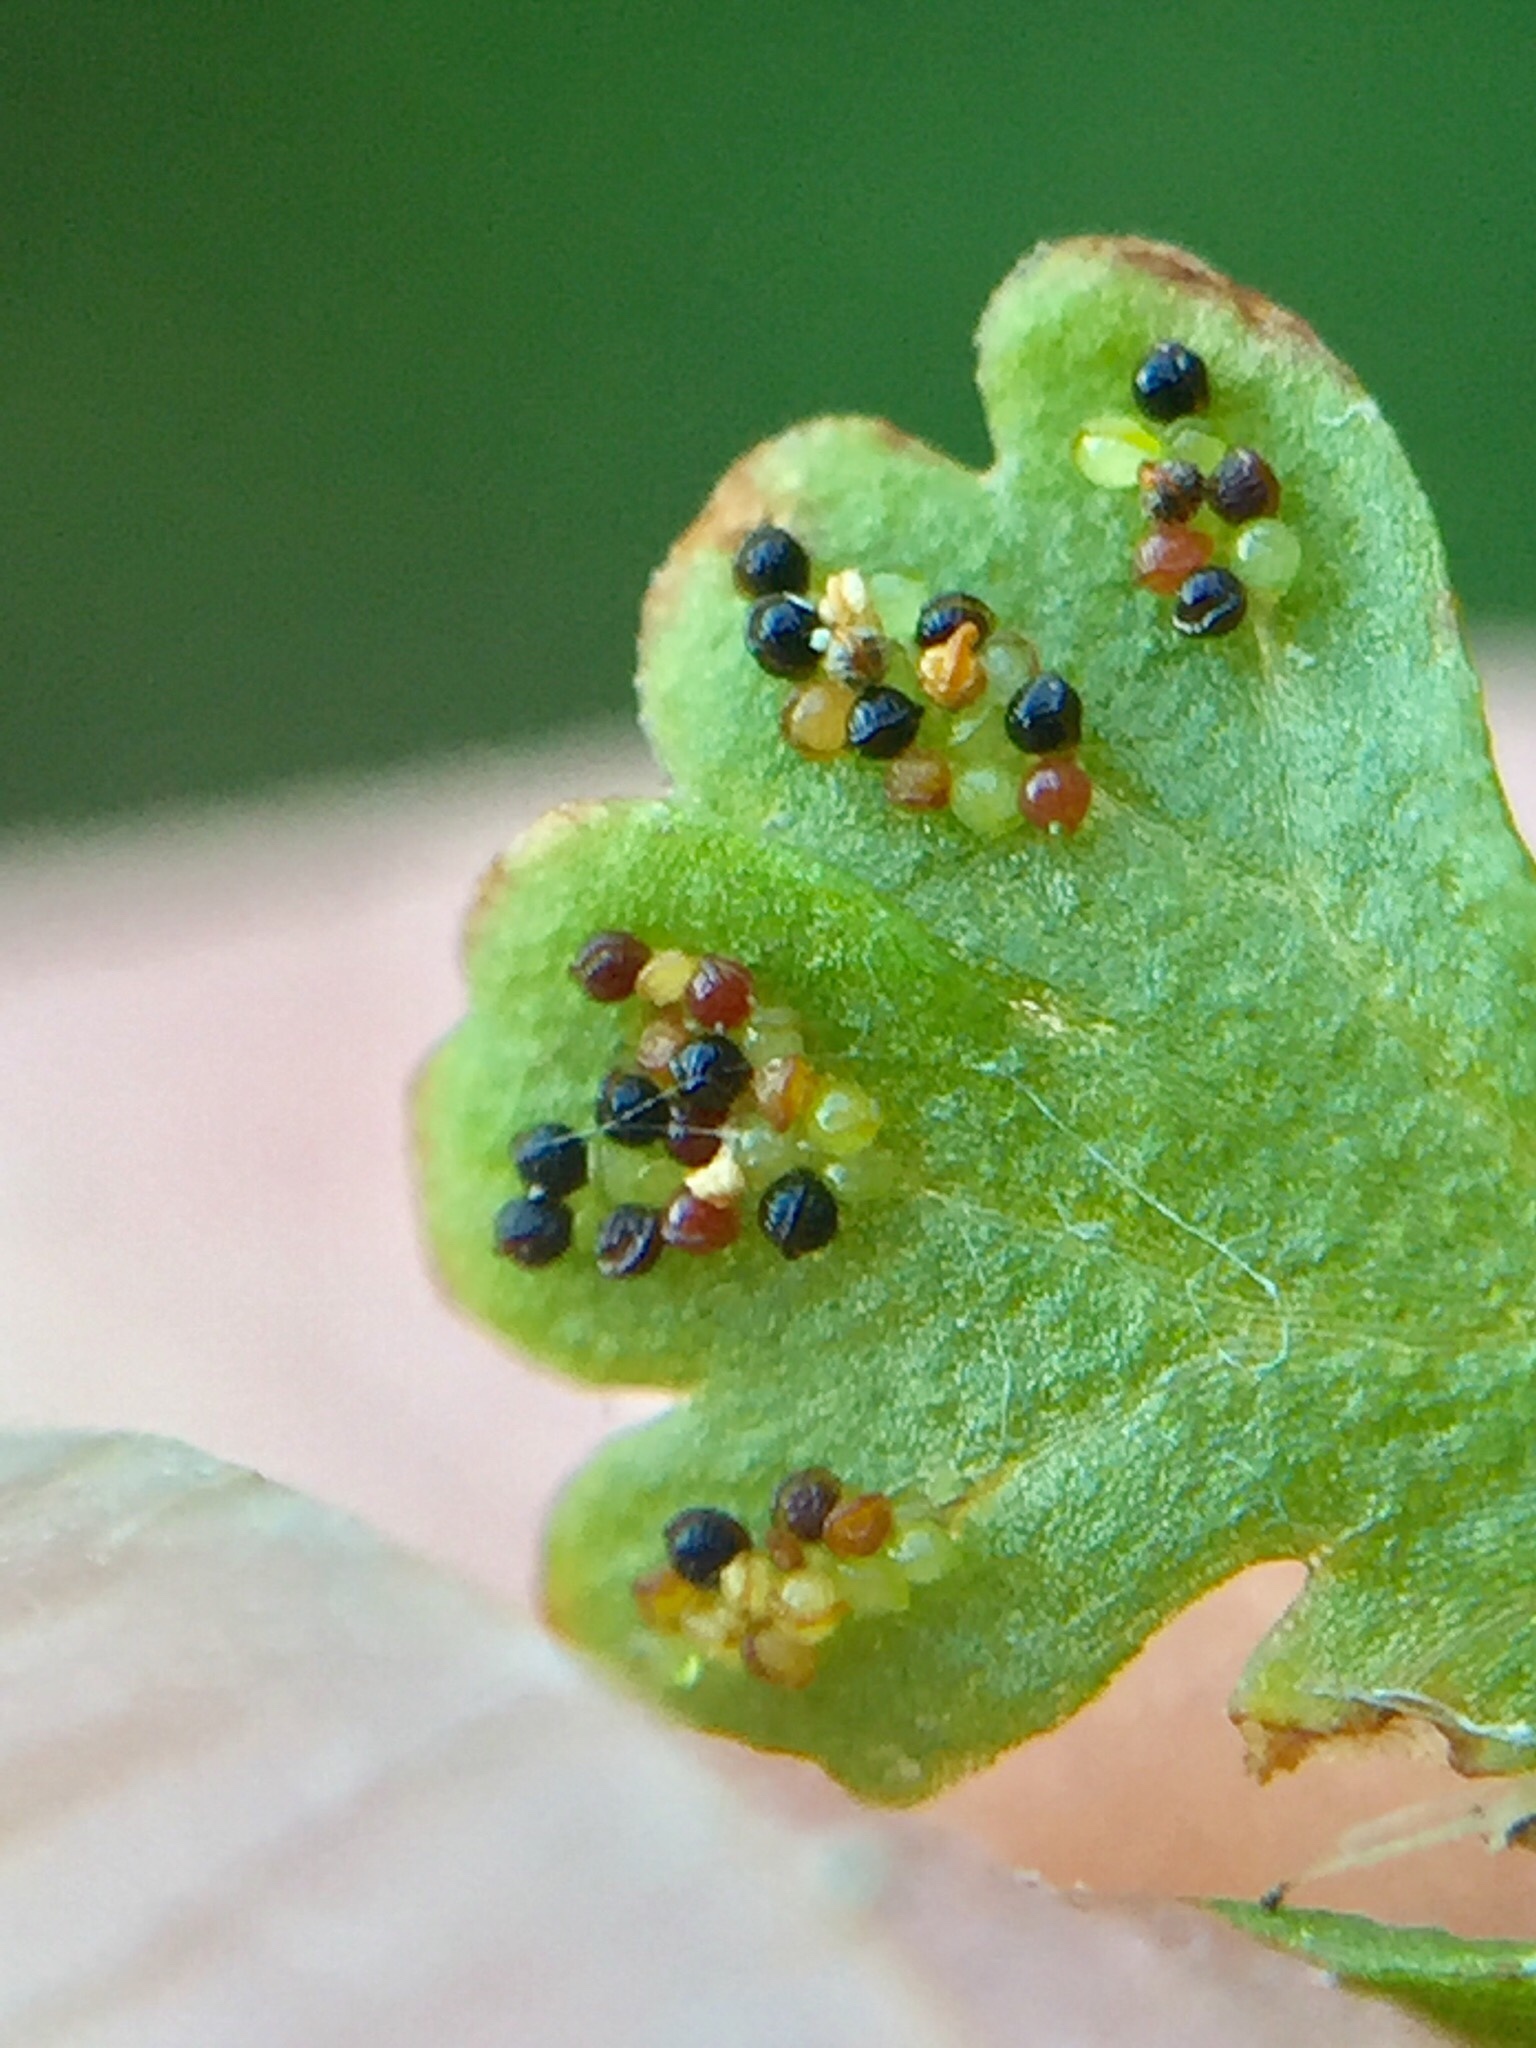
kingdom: Plantae
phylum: Tracheophyta
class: Polypodiopsida
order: Polypodiales
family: Pteridaceae
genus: Anogramma
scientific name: Anogramma leptophylla
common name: Jersey fern
